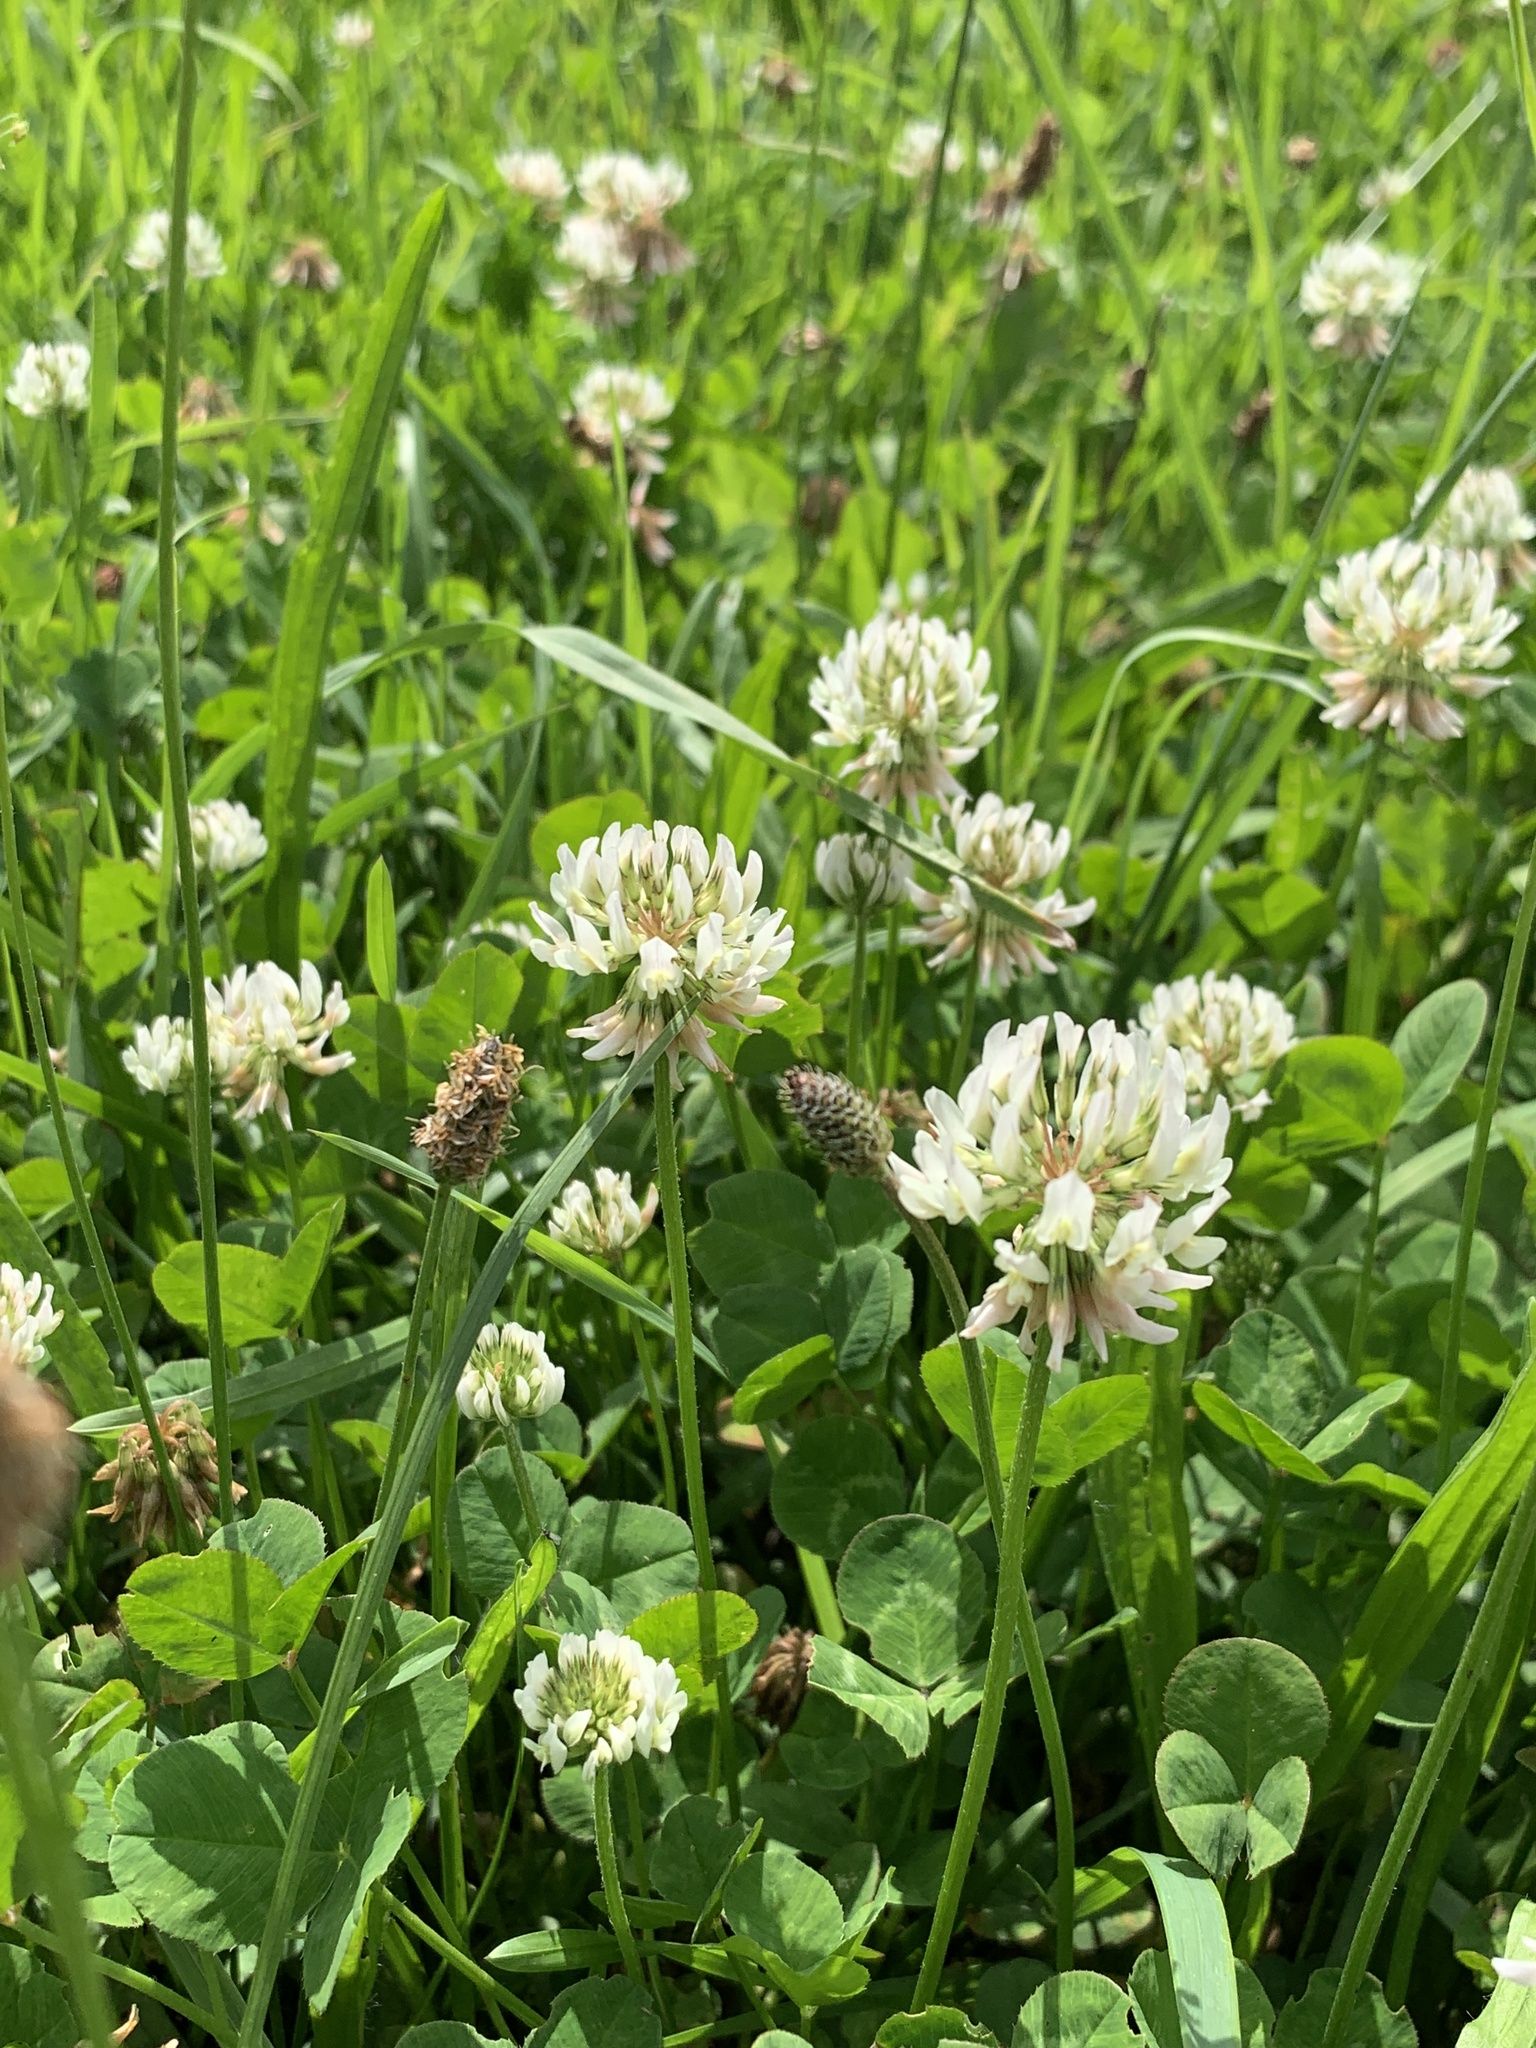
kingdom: Plantae
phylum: Tracheophyta
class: Magnoliopsida
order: Fabales
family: Fabaceae
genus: Trifolium
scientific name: Trifolium repens
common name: White clover
